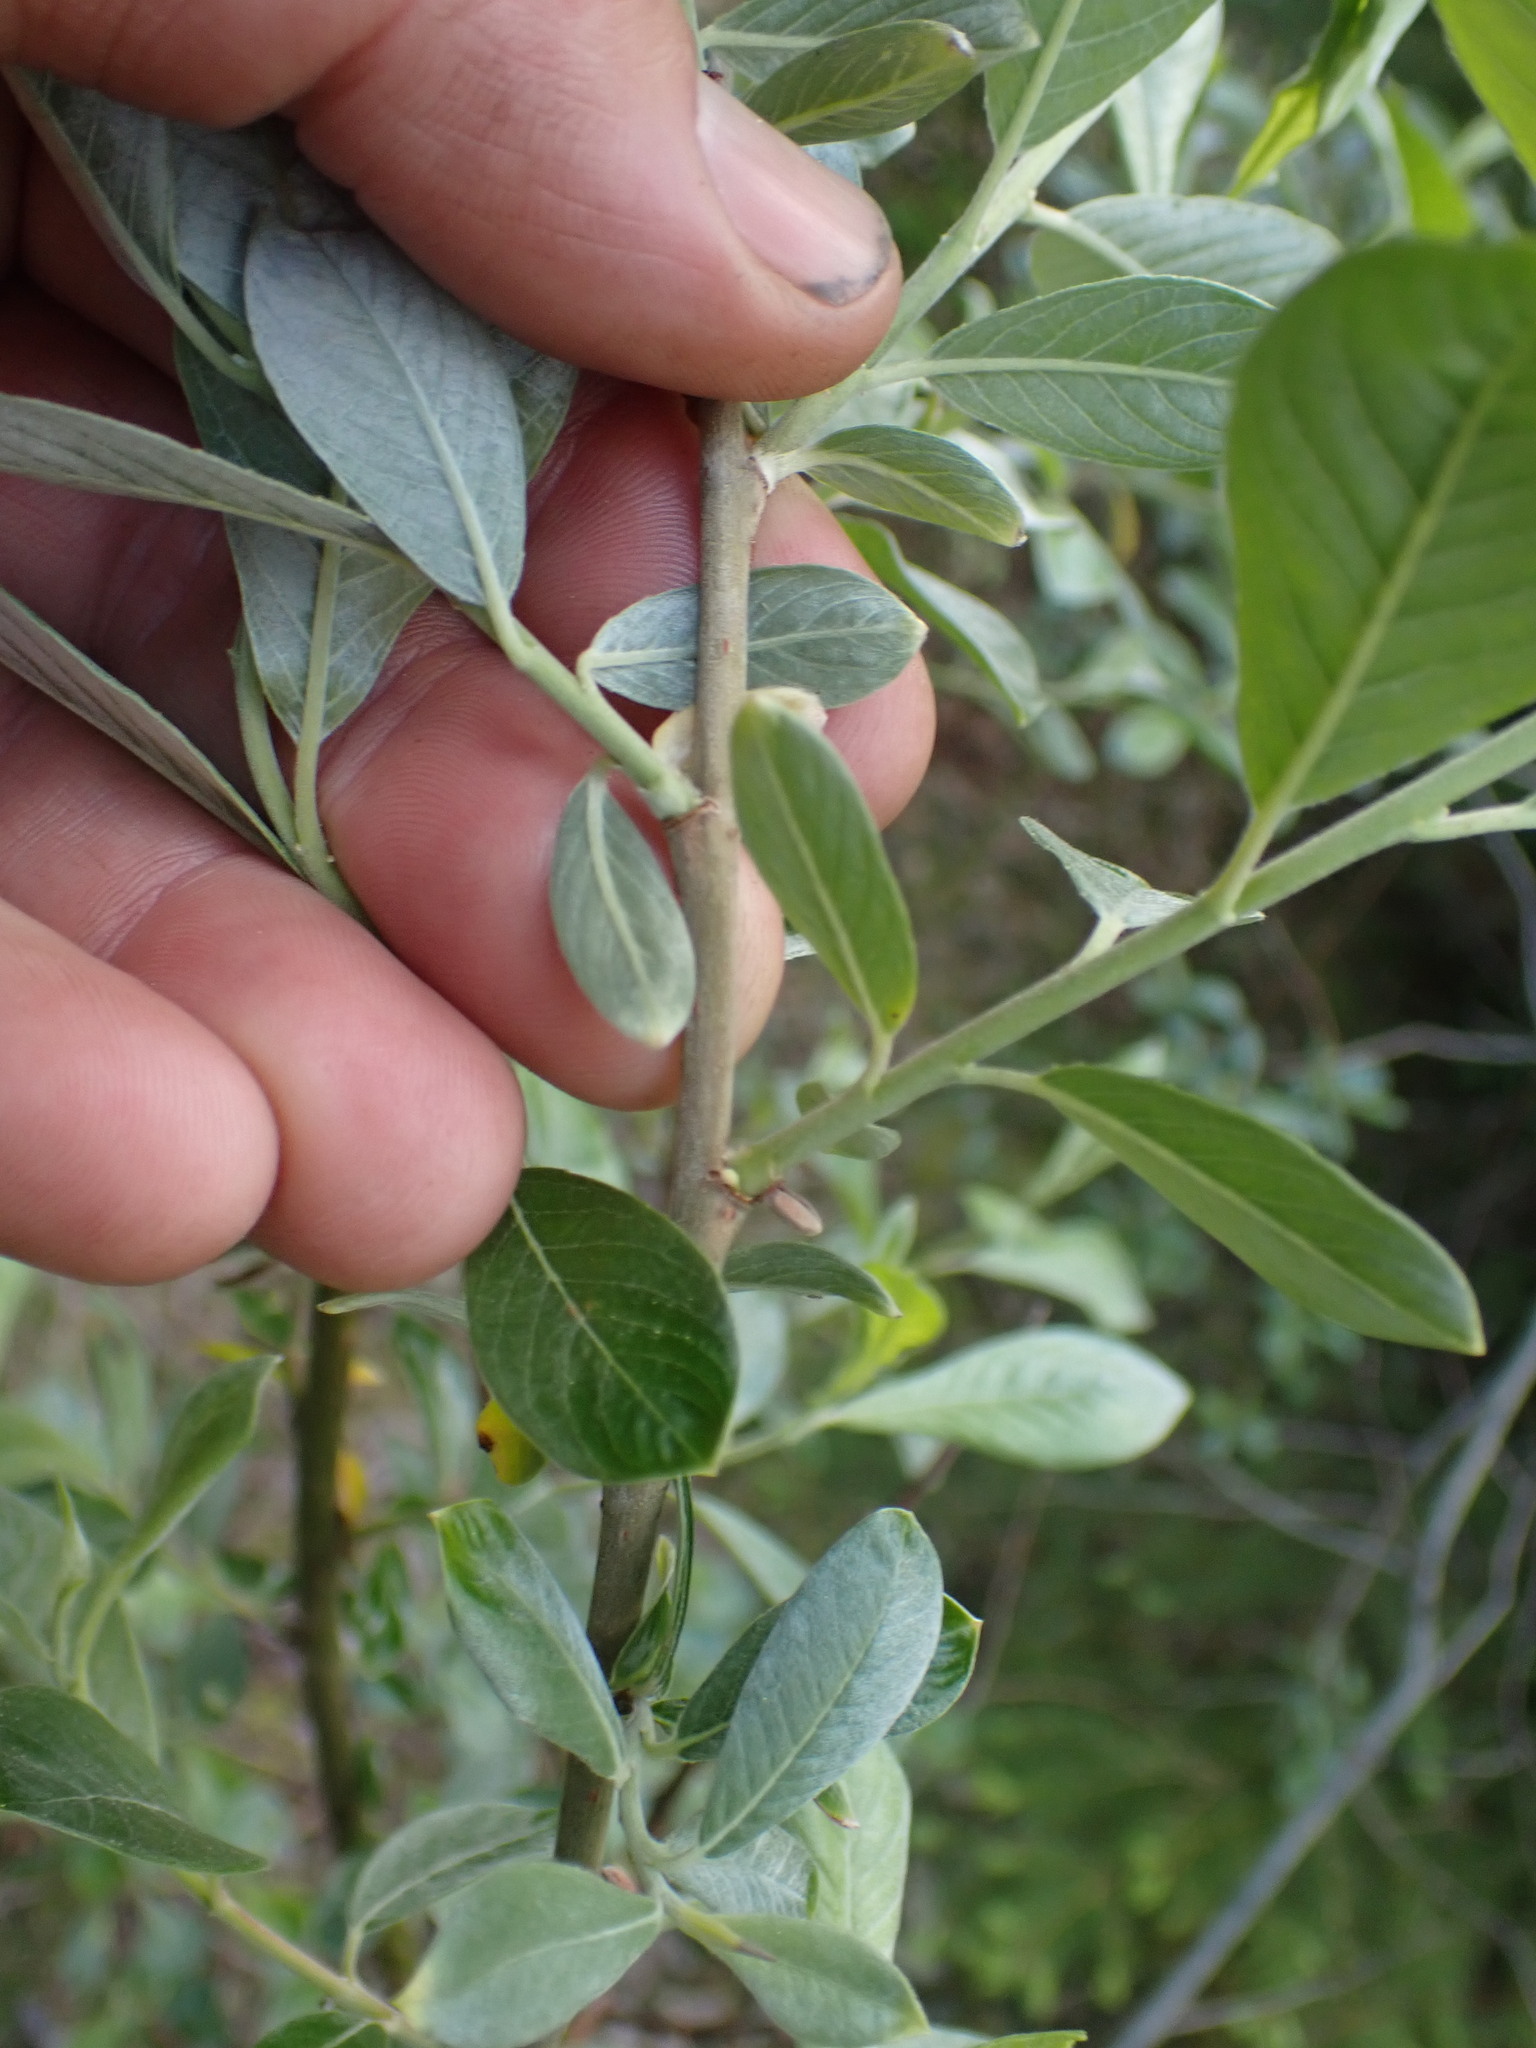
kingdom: Plantae
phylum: Tracheophyta
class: Magnoliopsida
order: Malpighiales
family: Salicaceae
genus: Salix
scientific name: Salix sitchensis
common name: Sitka willow
